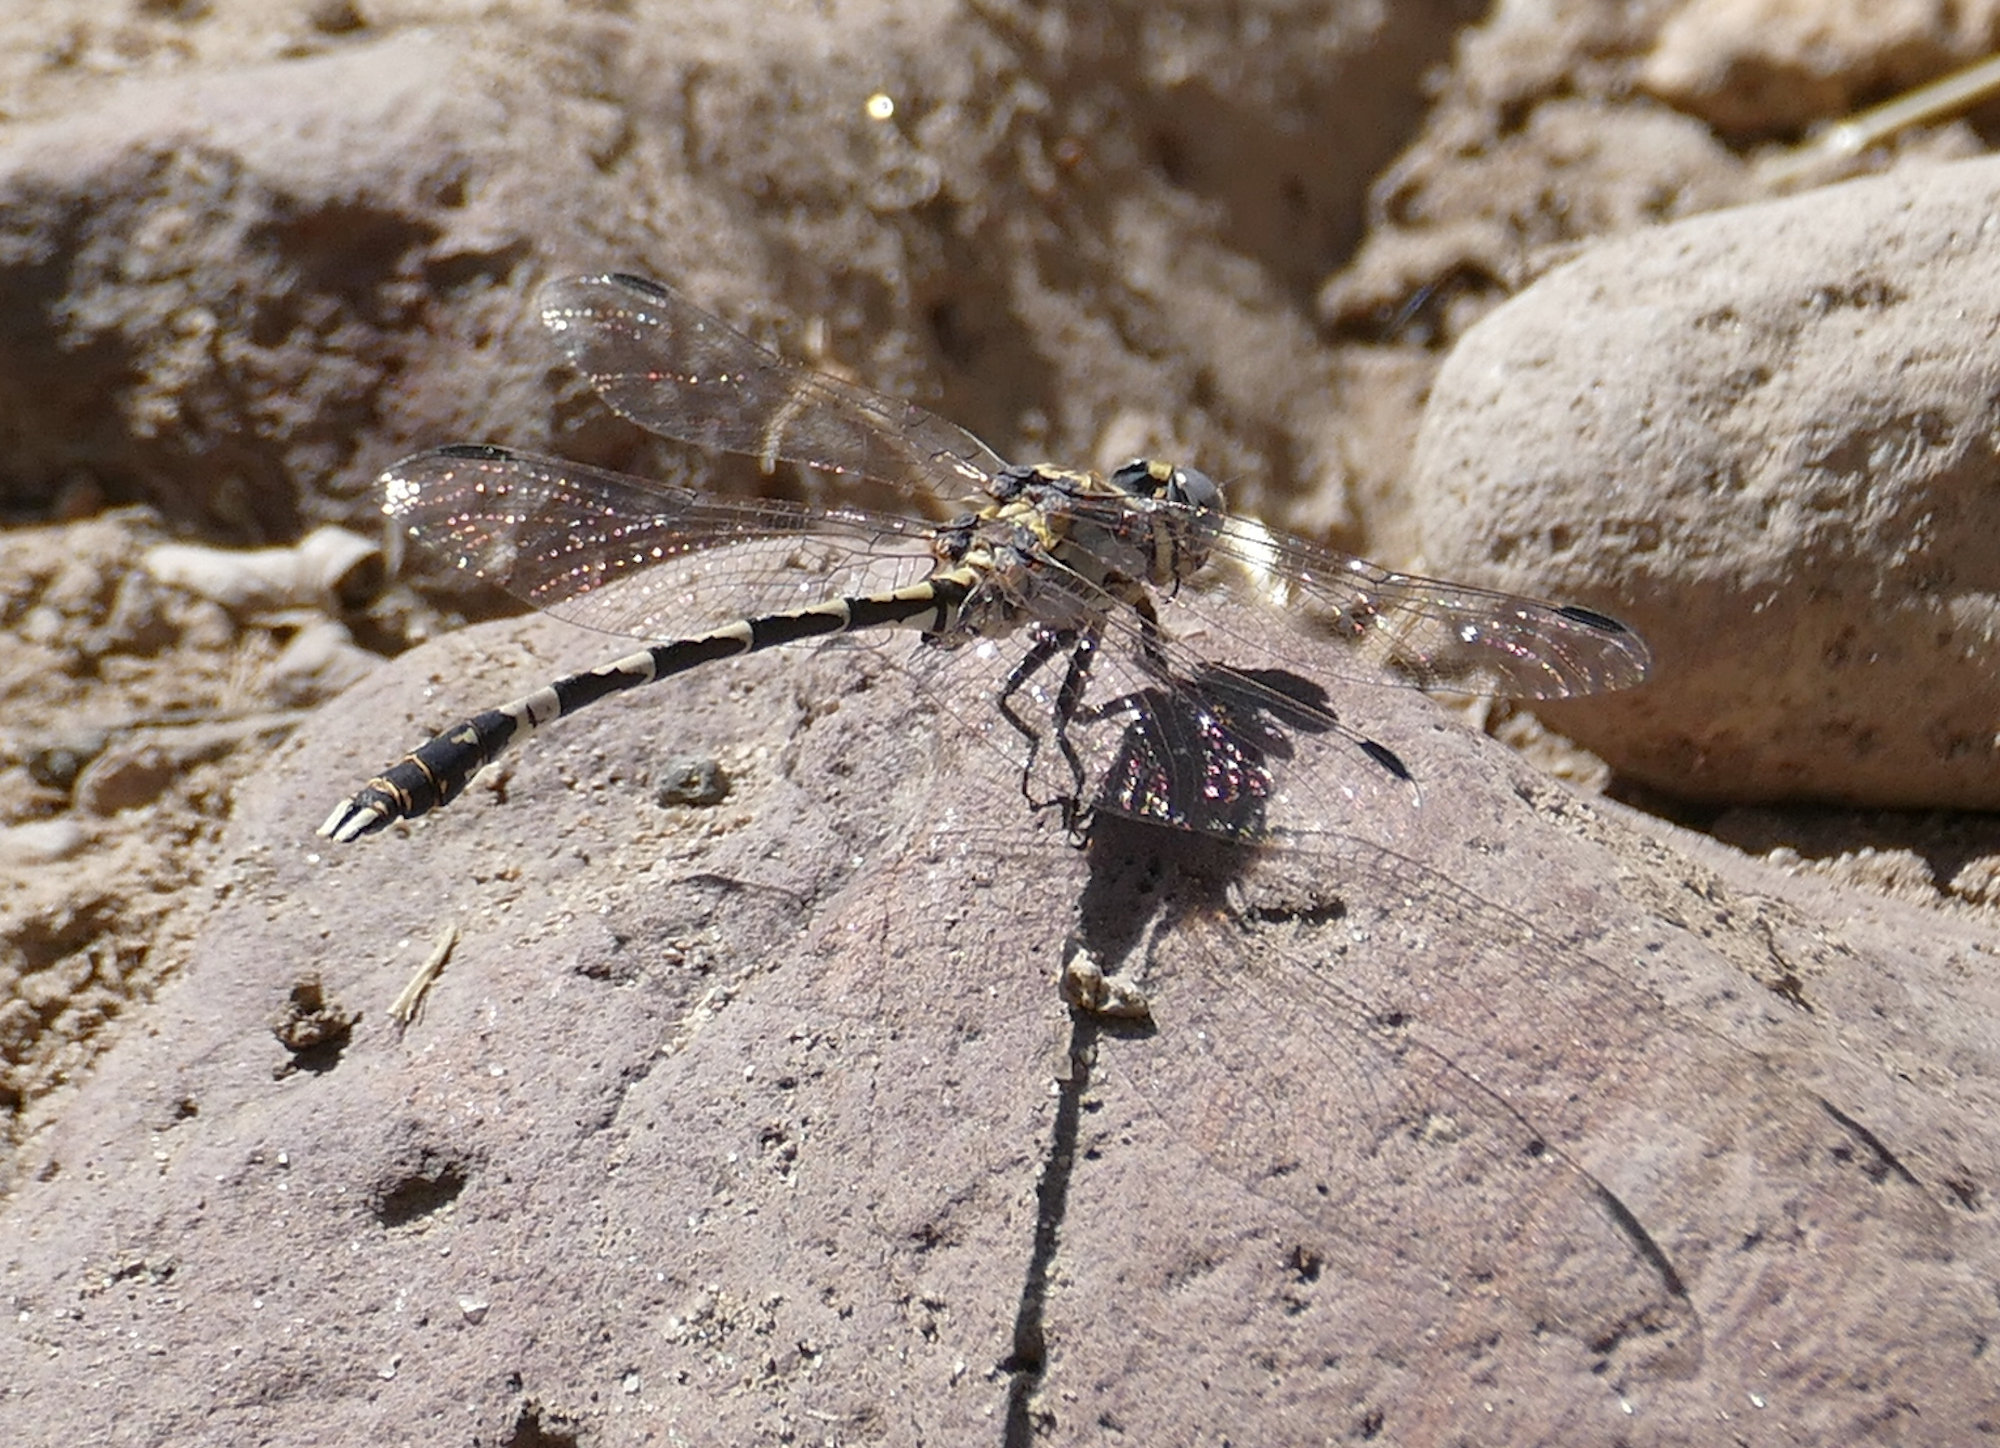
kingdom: Animalia
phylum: Arthropoda
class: Insecta
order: Odonata
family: Gomphidae
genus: Progomphus
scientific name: Progomphus borealis
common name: Gray sanddragon
